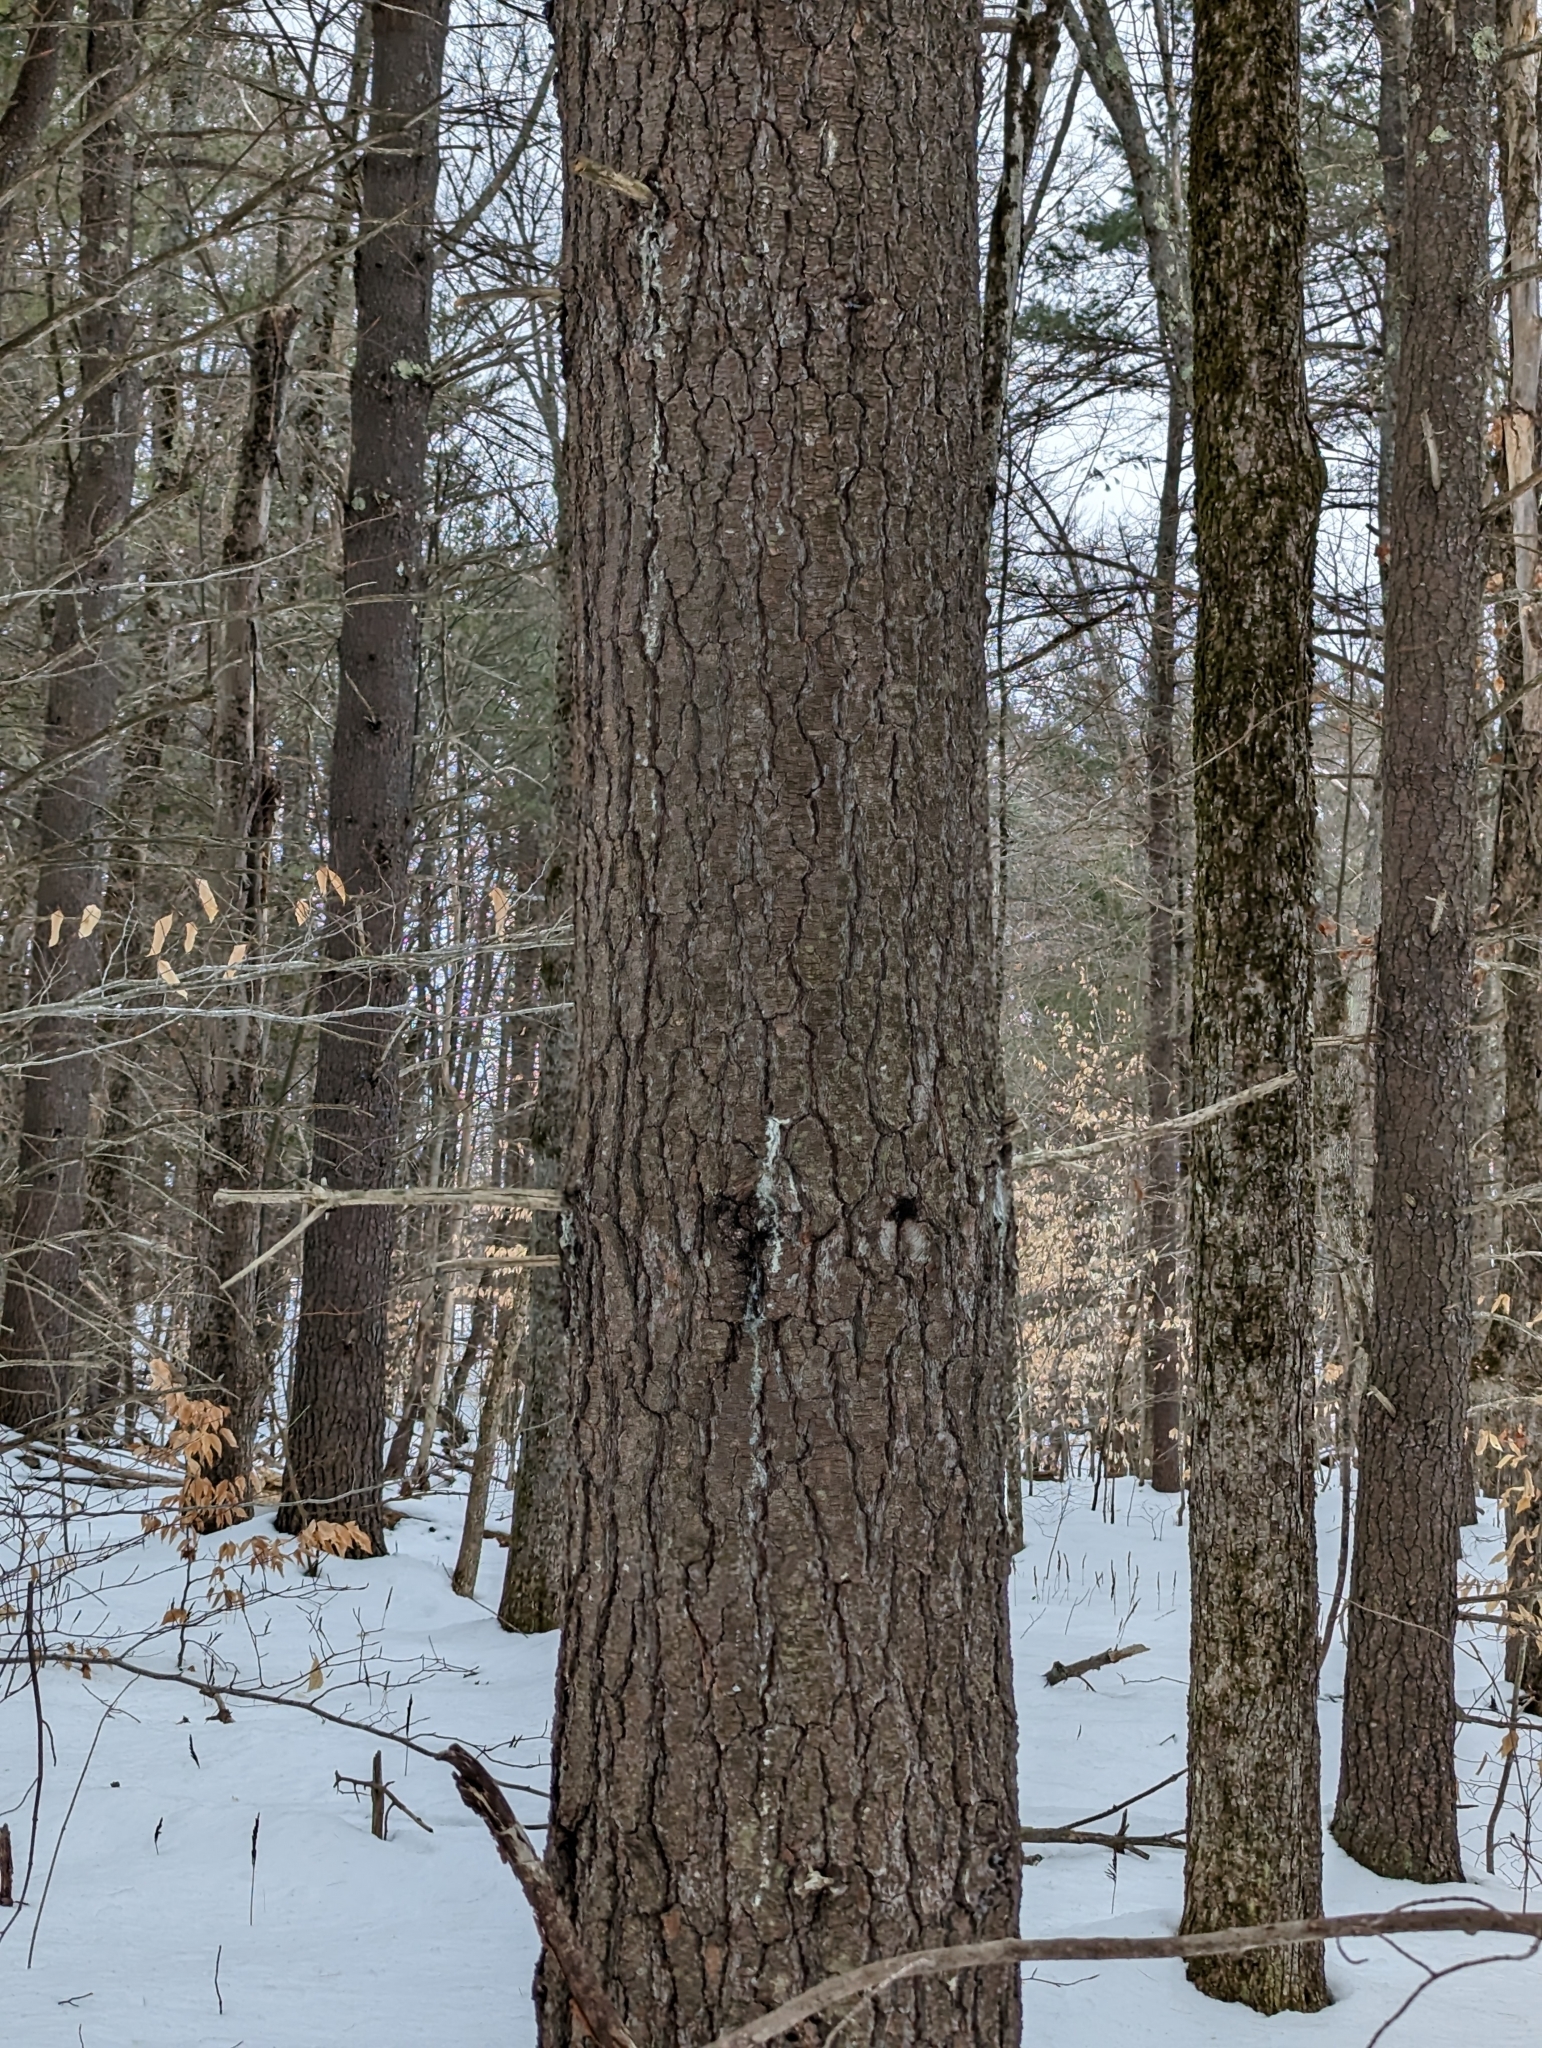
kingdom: Plantae
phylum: Tracheophyta
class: Pinopsida
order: Pinales
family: Pinaceae
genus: Pinus
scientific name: Pinus strobus
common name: Weymouth pine
